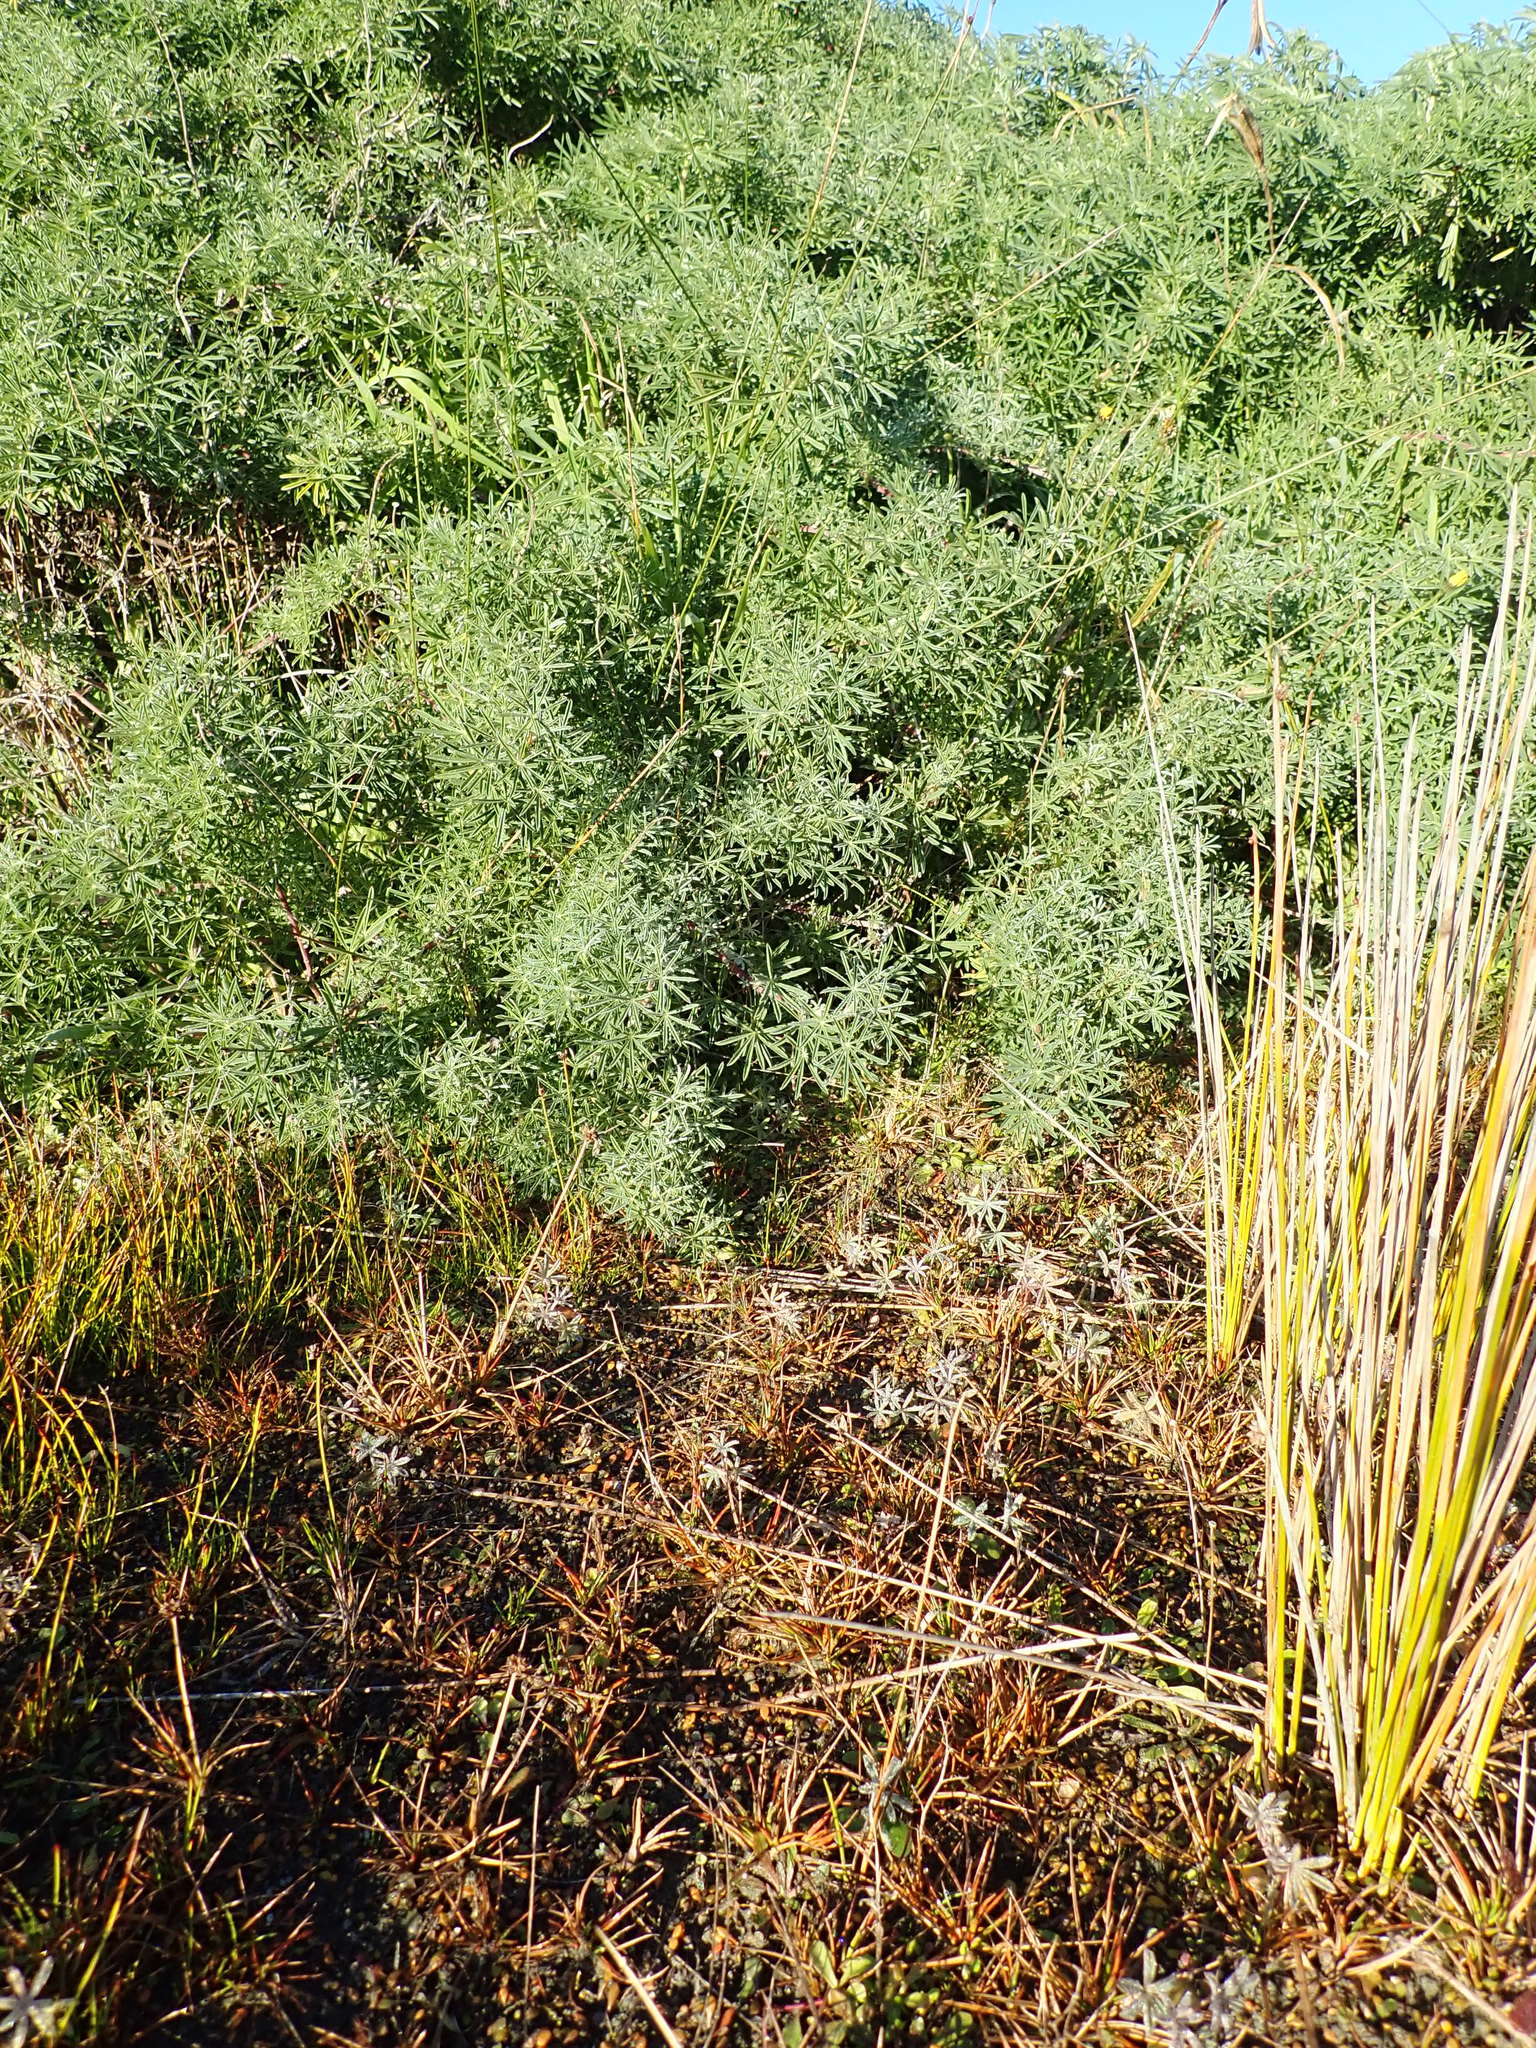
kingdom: Plantae
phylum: Tracheophyta
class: Magnoliopsida
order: Fabales
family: Fabaceae
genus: Lupinus
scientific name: Lupinus arboreus
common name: Yellow bush lupine
